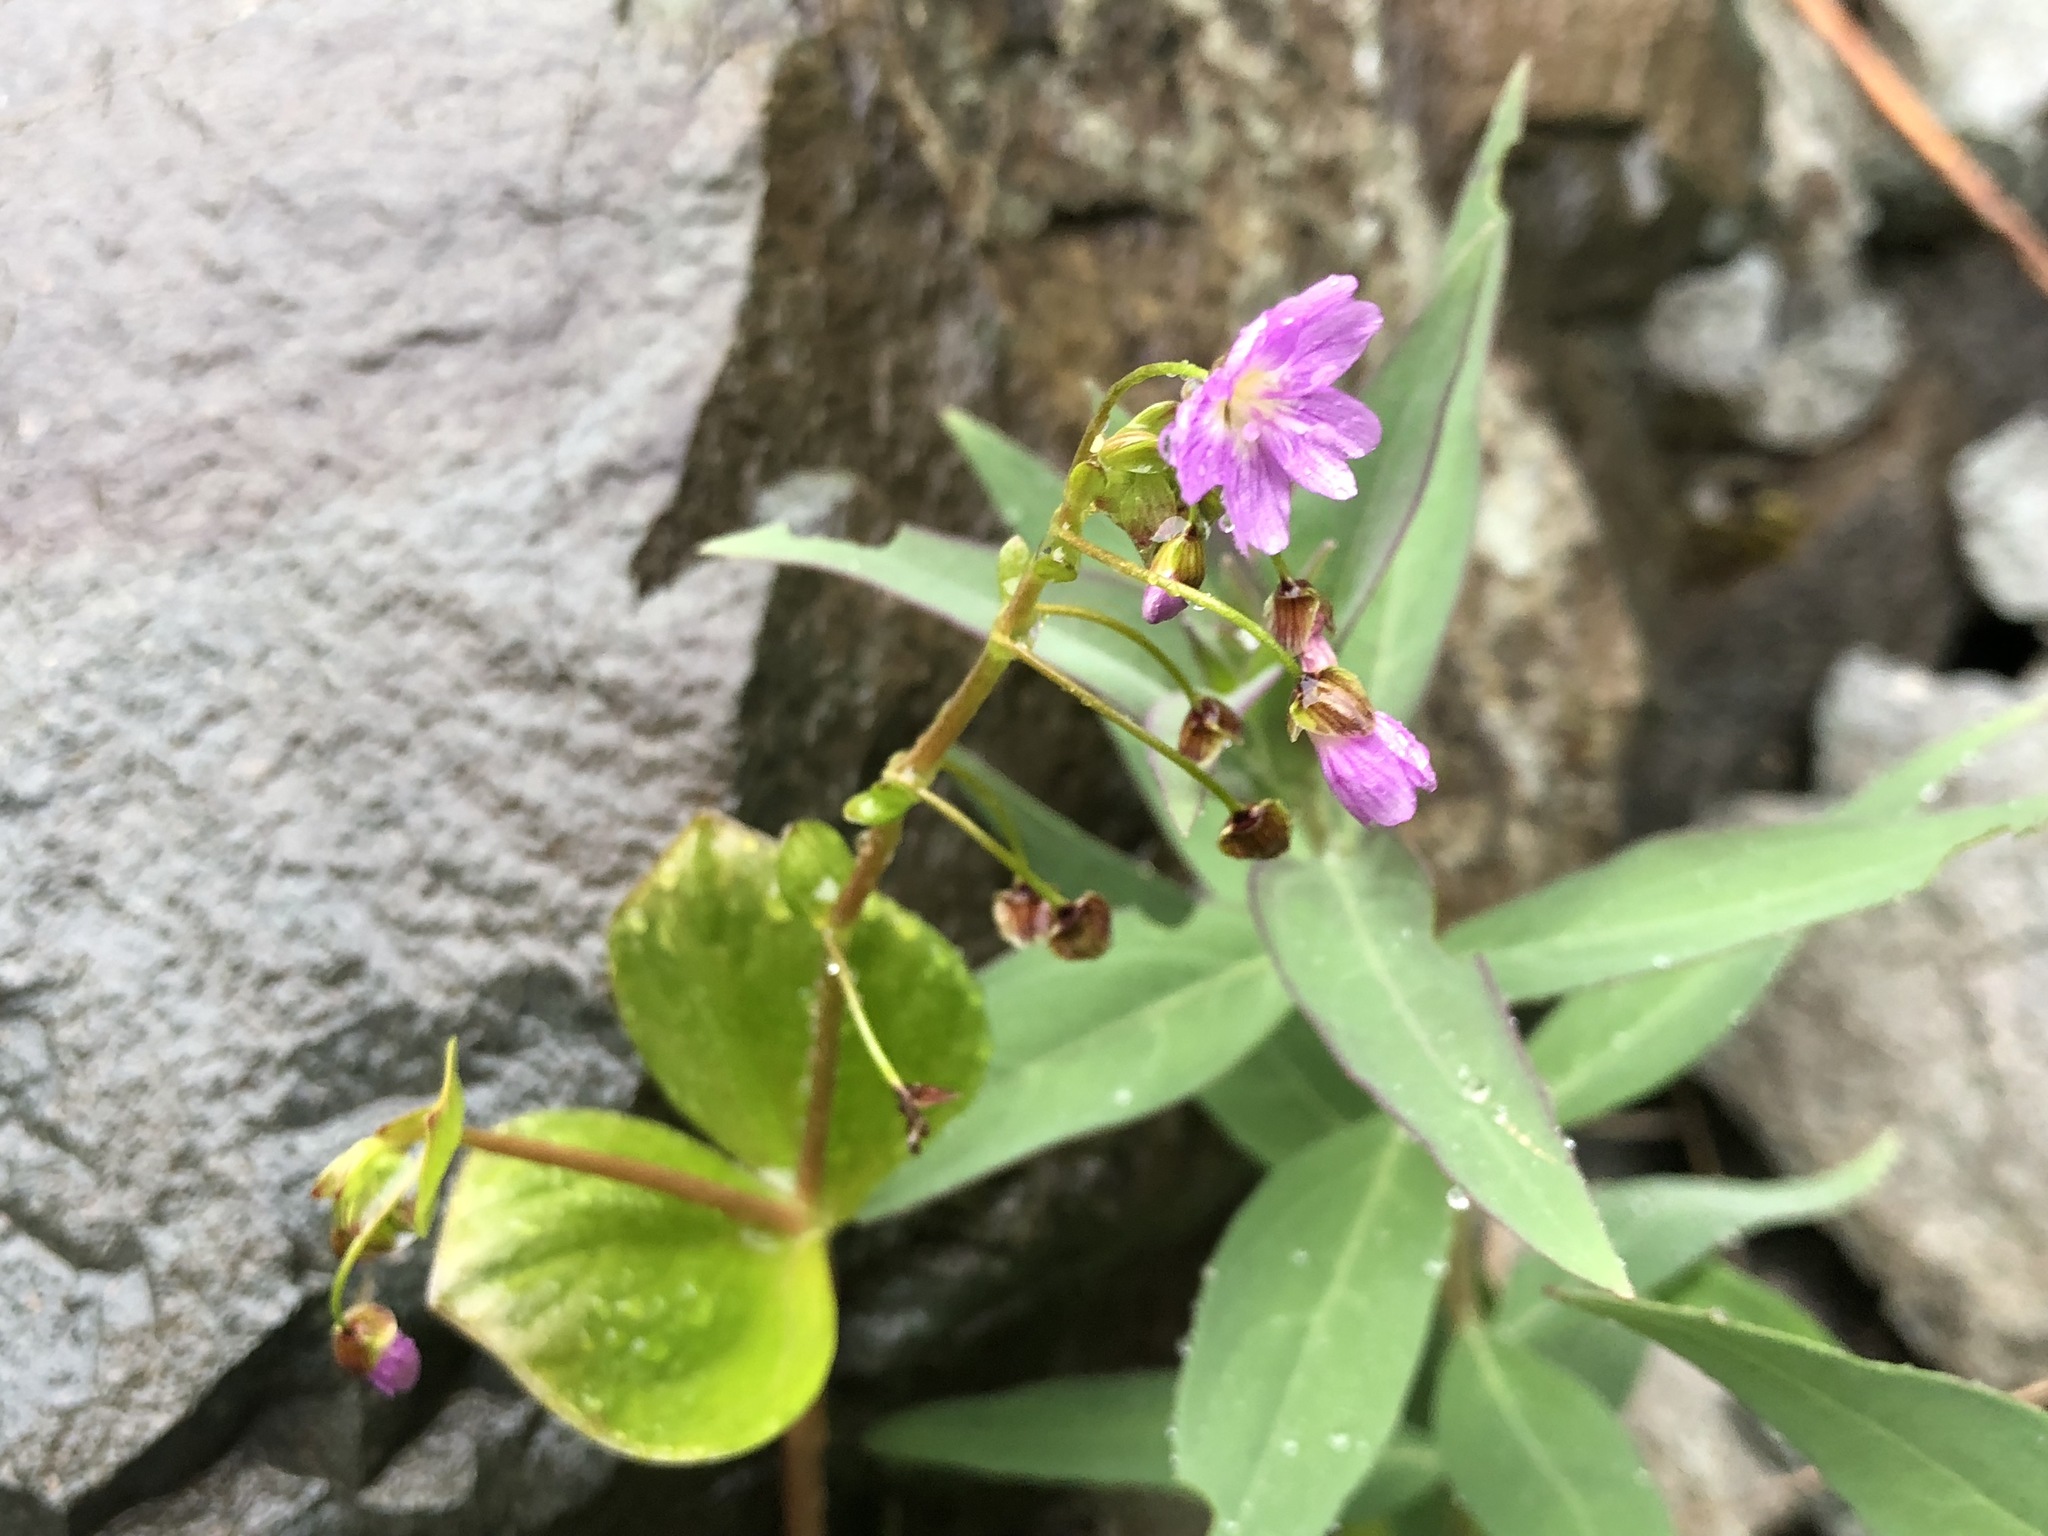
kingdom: Plantae
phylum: Tracheophyta
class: Magnoliopsida
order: Caryophyllales
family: Montiaceae
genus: Claytonia
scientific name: Claytonia sibirica
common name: Pink purslane
